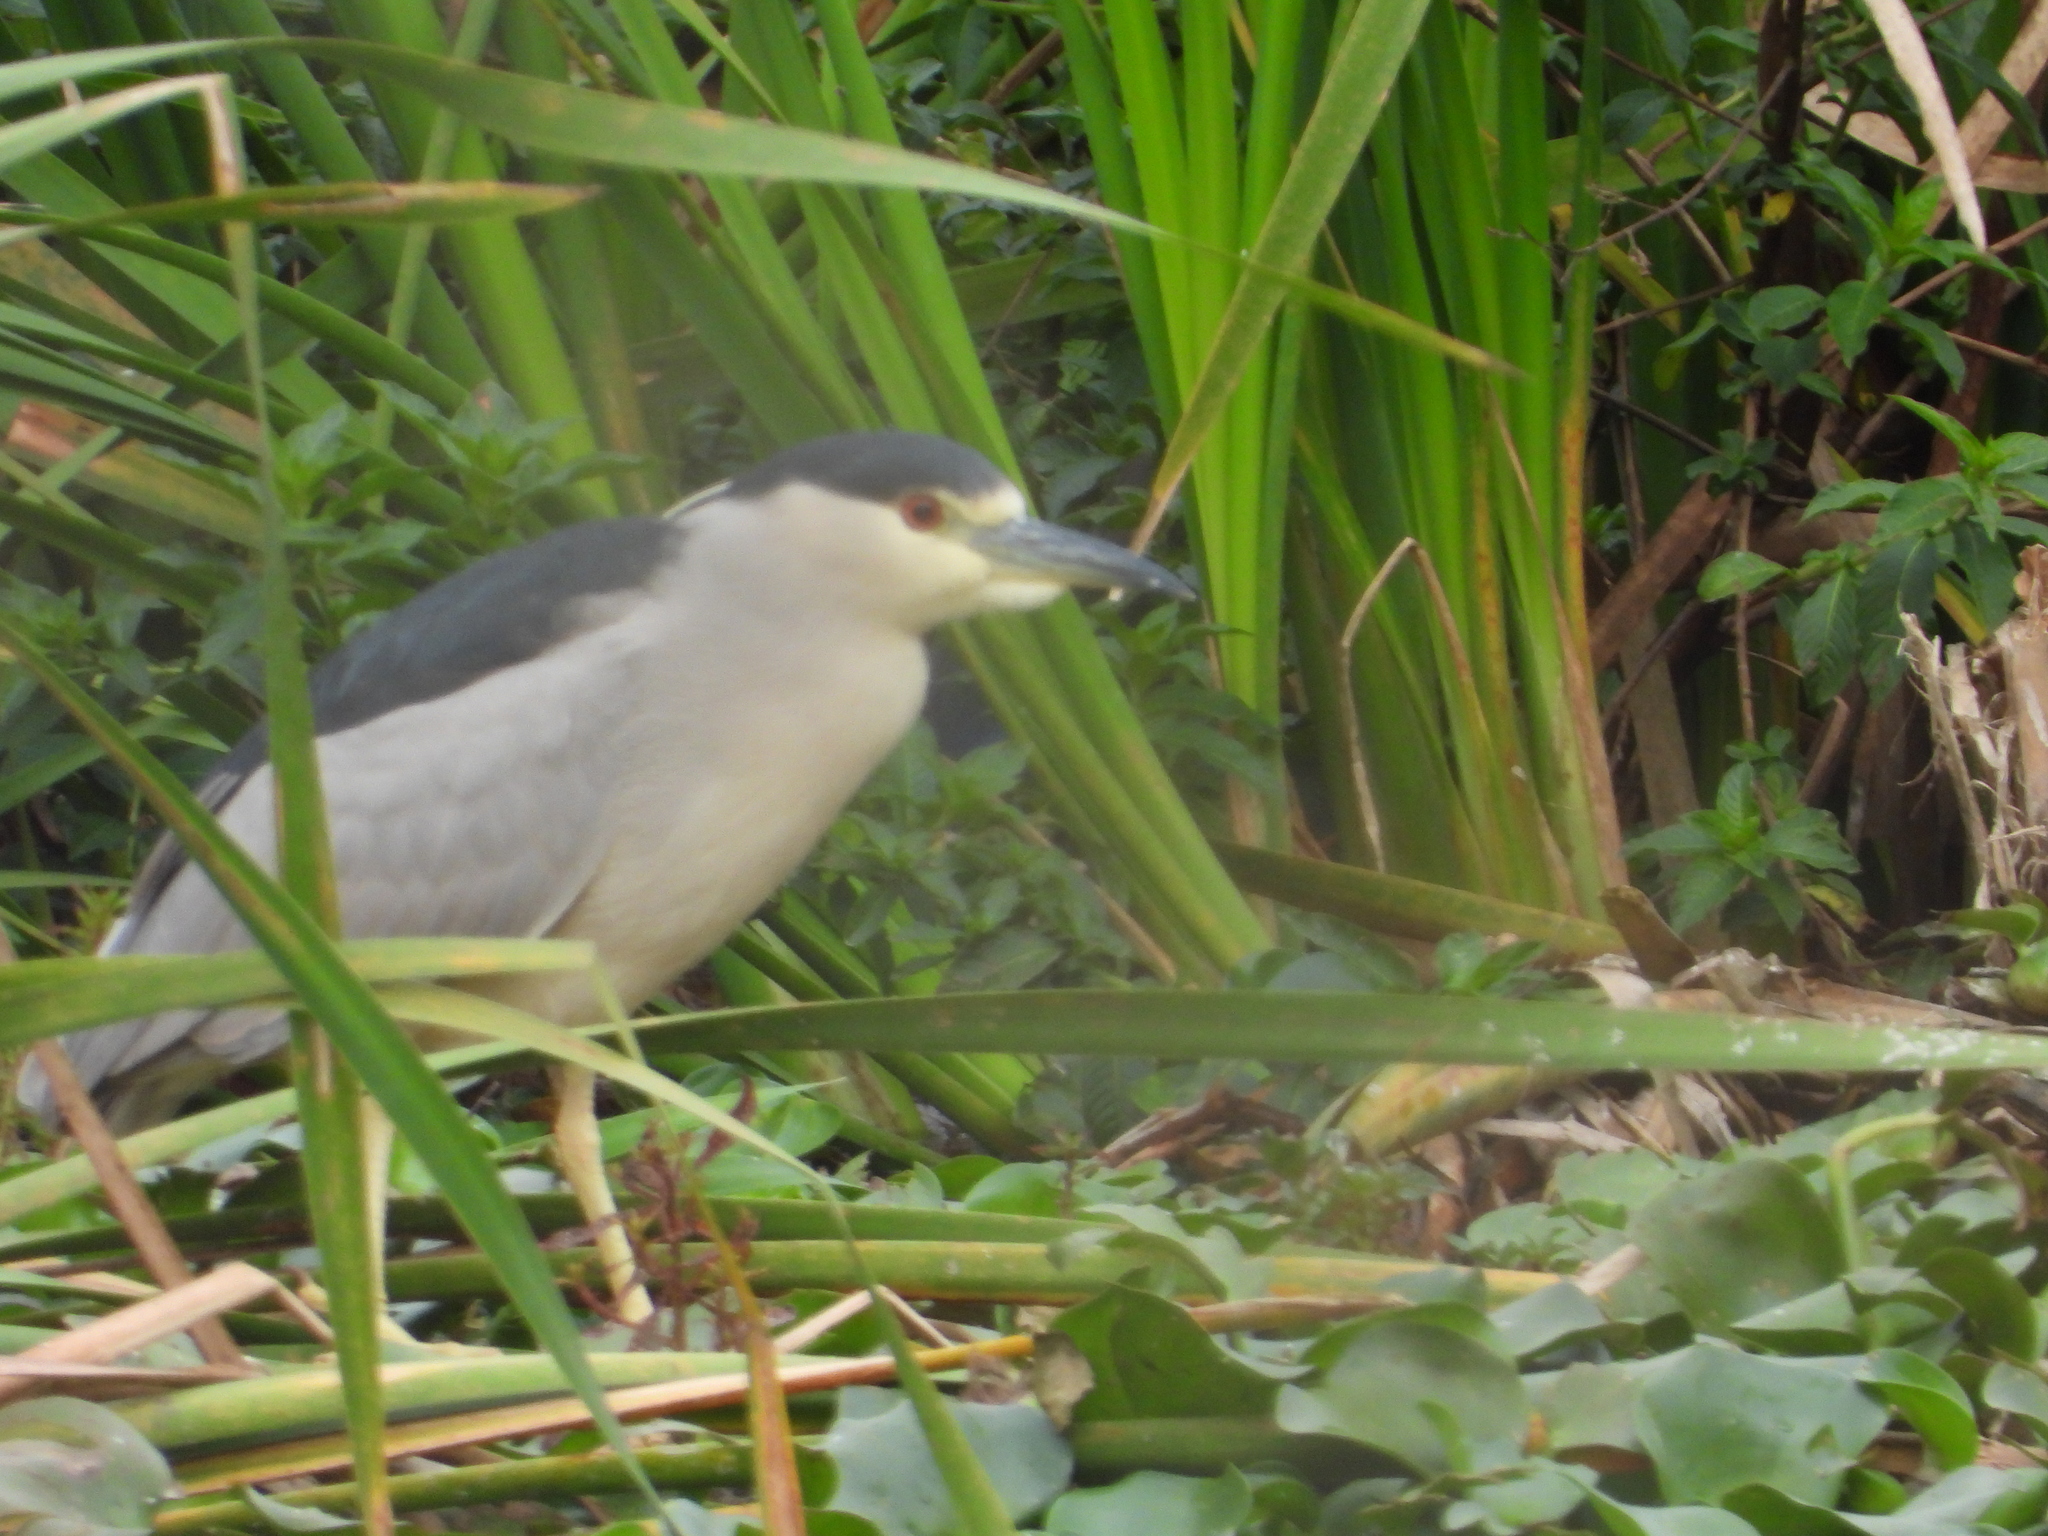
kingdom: Animalia
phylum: Chordata
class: Aves
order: Pelecaniformes
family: Ardeidae
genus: Nycticorax
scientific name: Nycticorax nycticorax
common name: Black-crowned night heron
